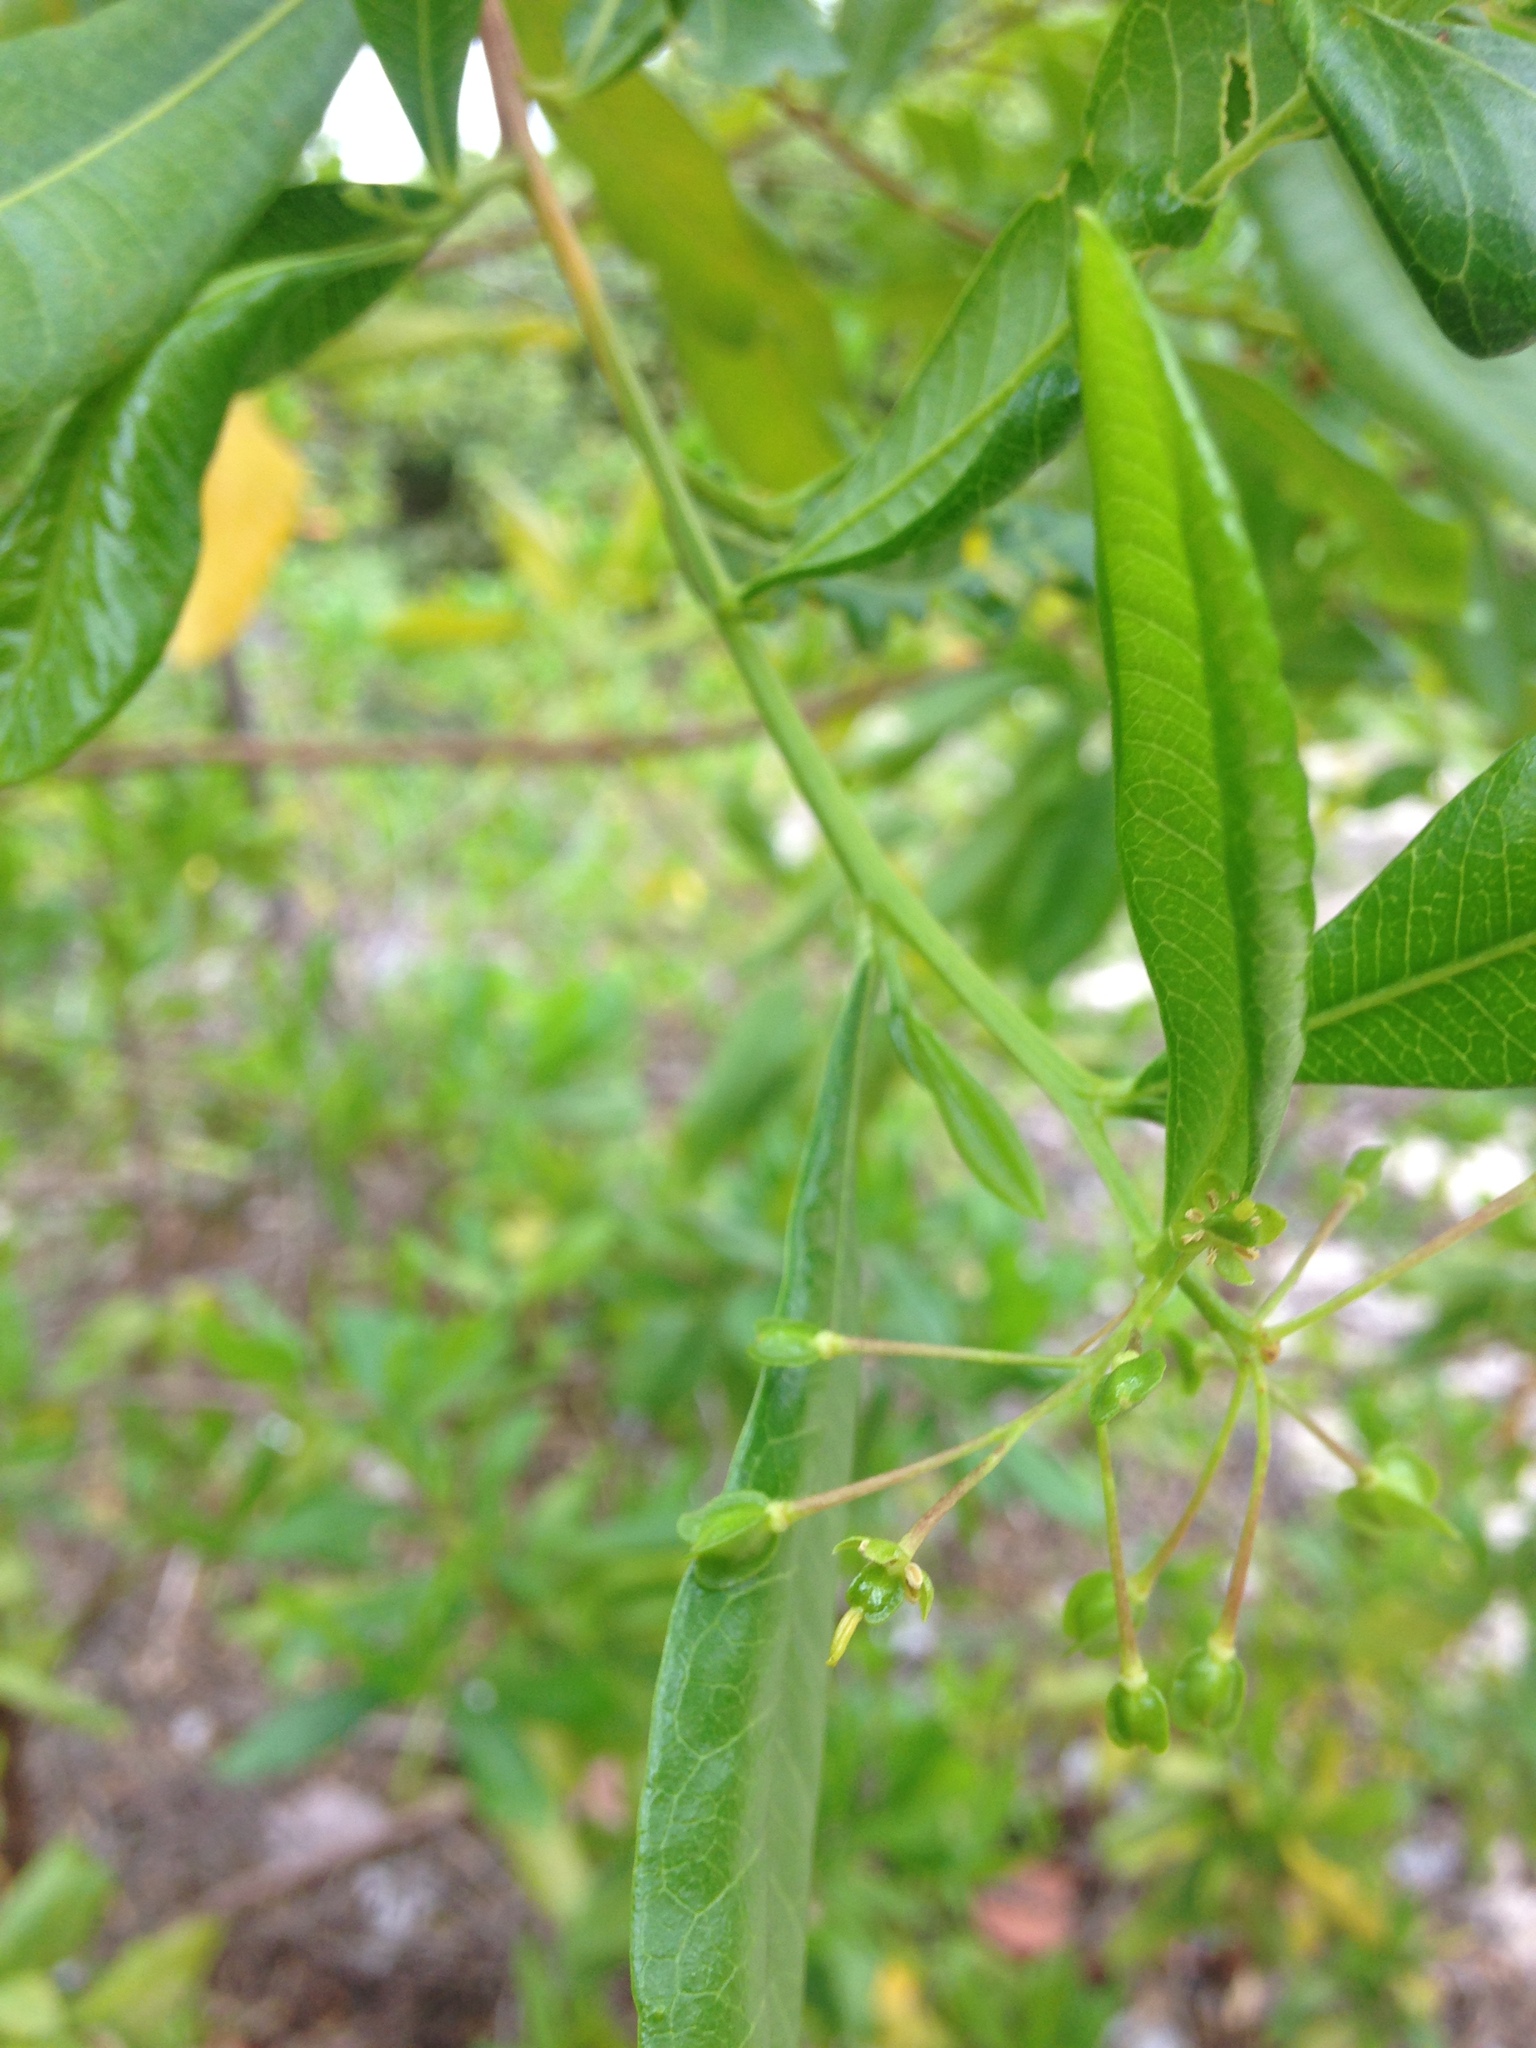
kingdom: Plantae
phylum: Tracheophyta
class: Magnoliopsida
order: Sapindales
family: Sapindaceae
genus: Dodonaea
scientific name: Dodonaea viscosa
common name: Hopbush
